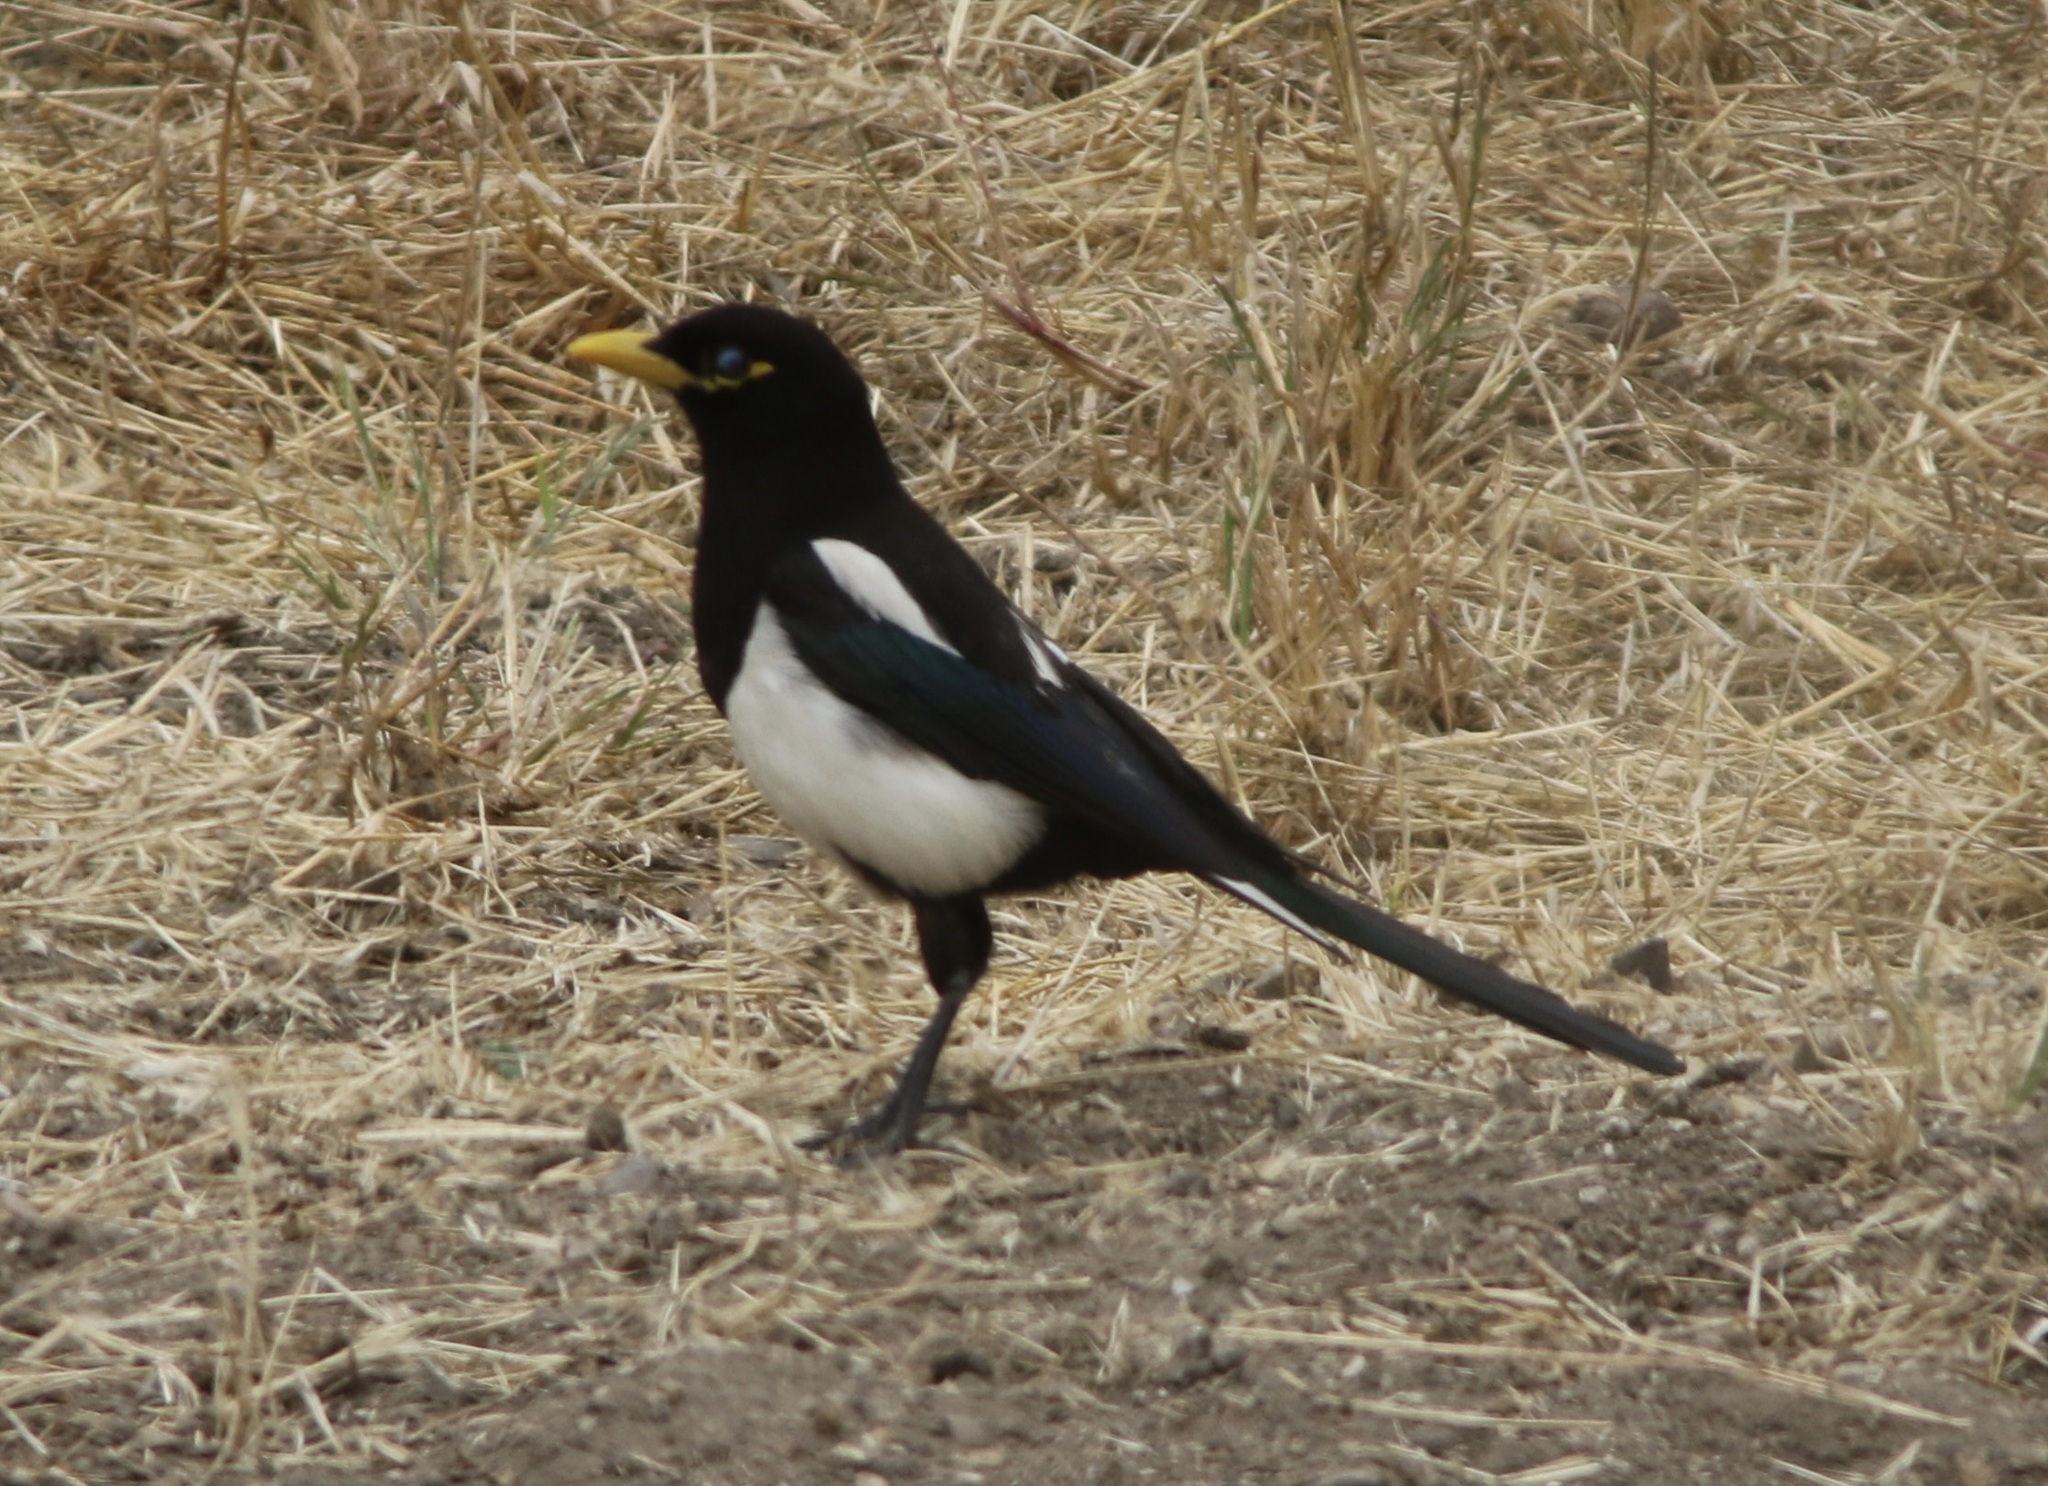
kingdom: Animalia
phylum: Chordata
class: Aves
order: Passeriformes
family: Corvidae
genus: Pica
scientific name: Pica nuttalli
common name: Yellow-billed magpie
